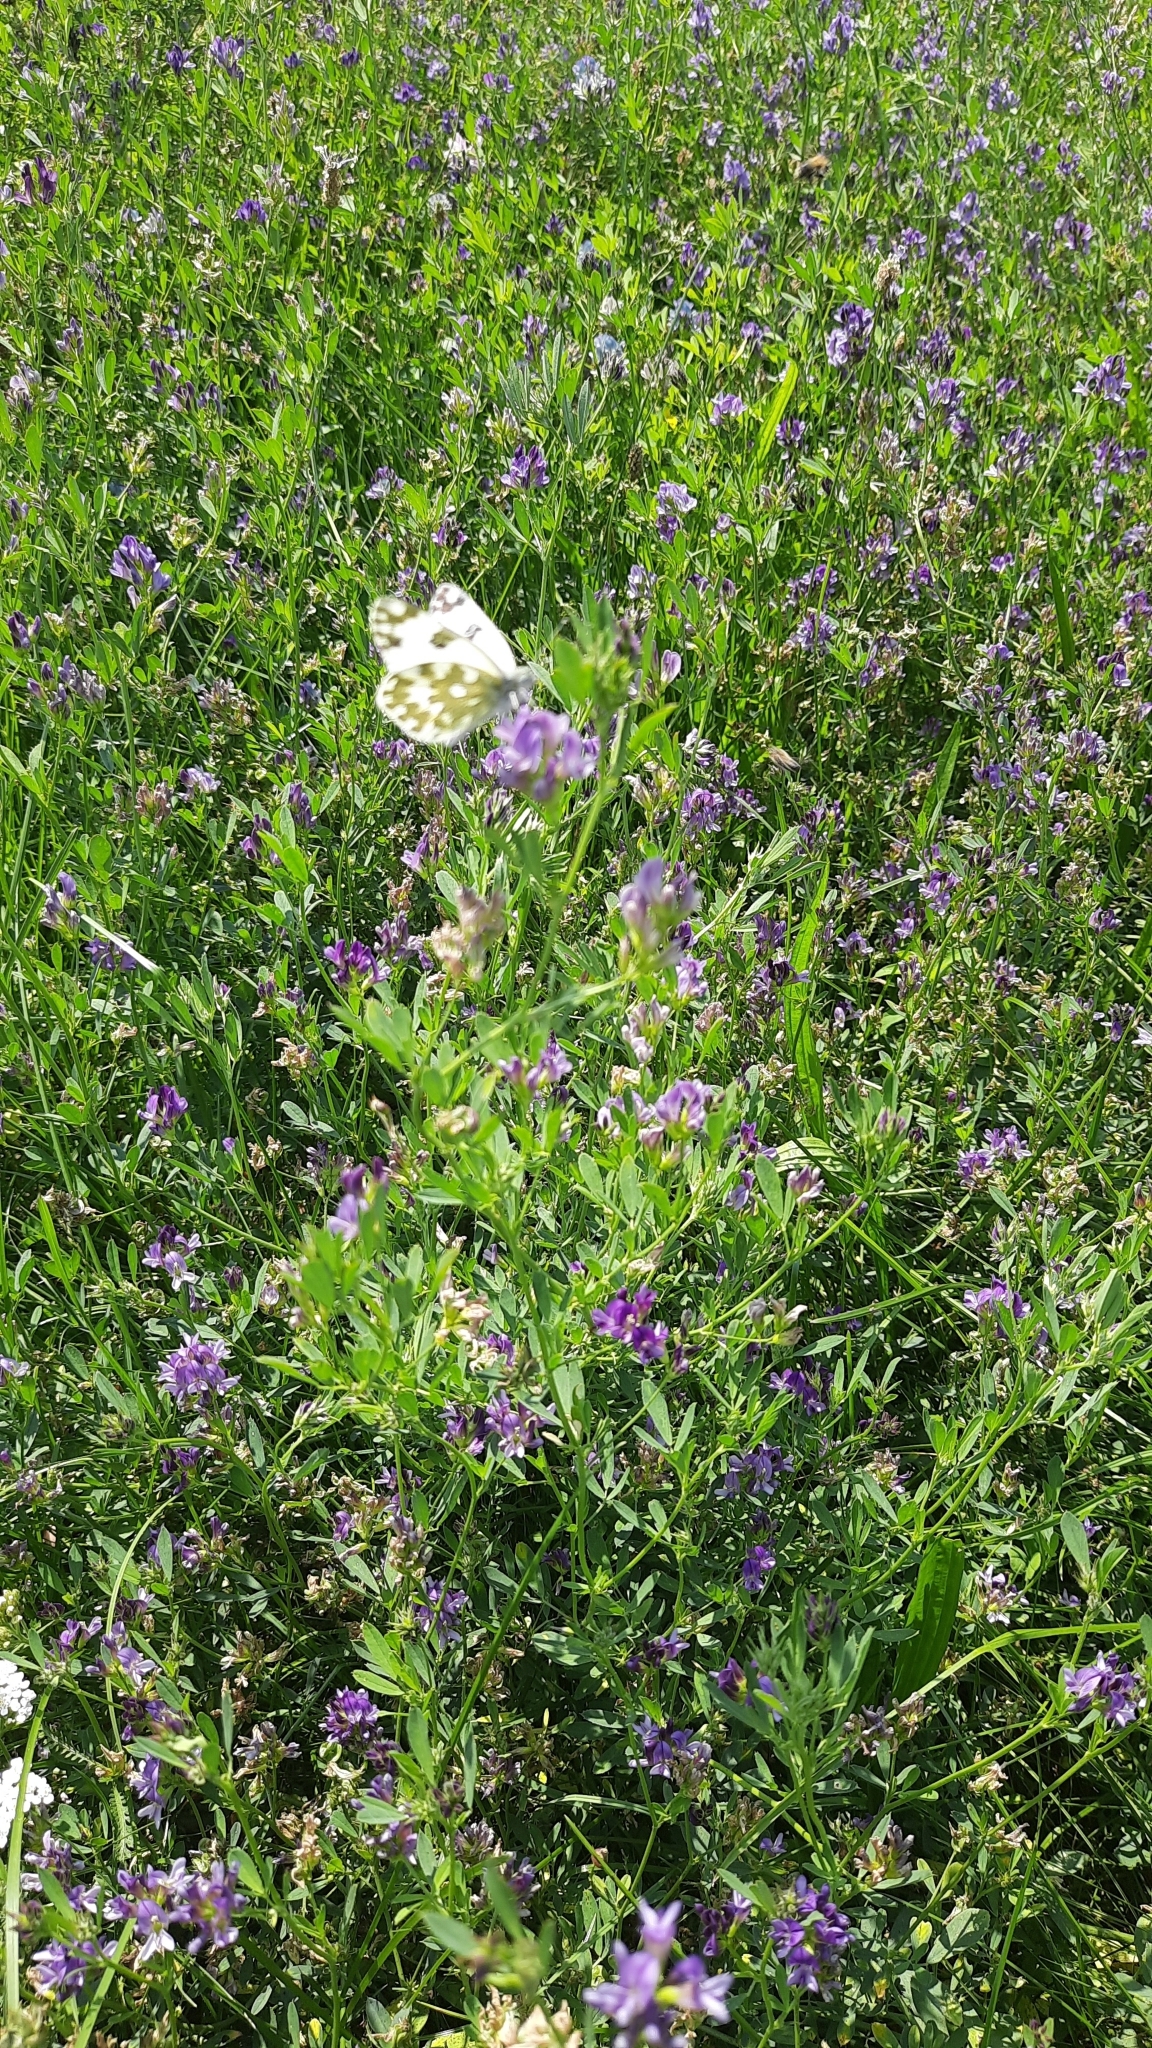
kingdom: Animalia
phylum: Arthropoda
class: Insecta
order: Lepidoptera
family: Pieridae
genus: Pontia
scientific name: Pontia edusa
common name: Eastern bath white
